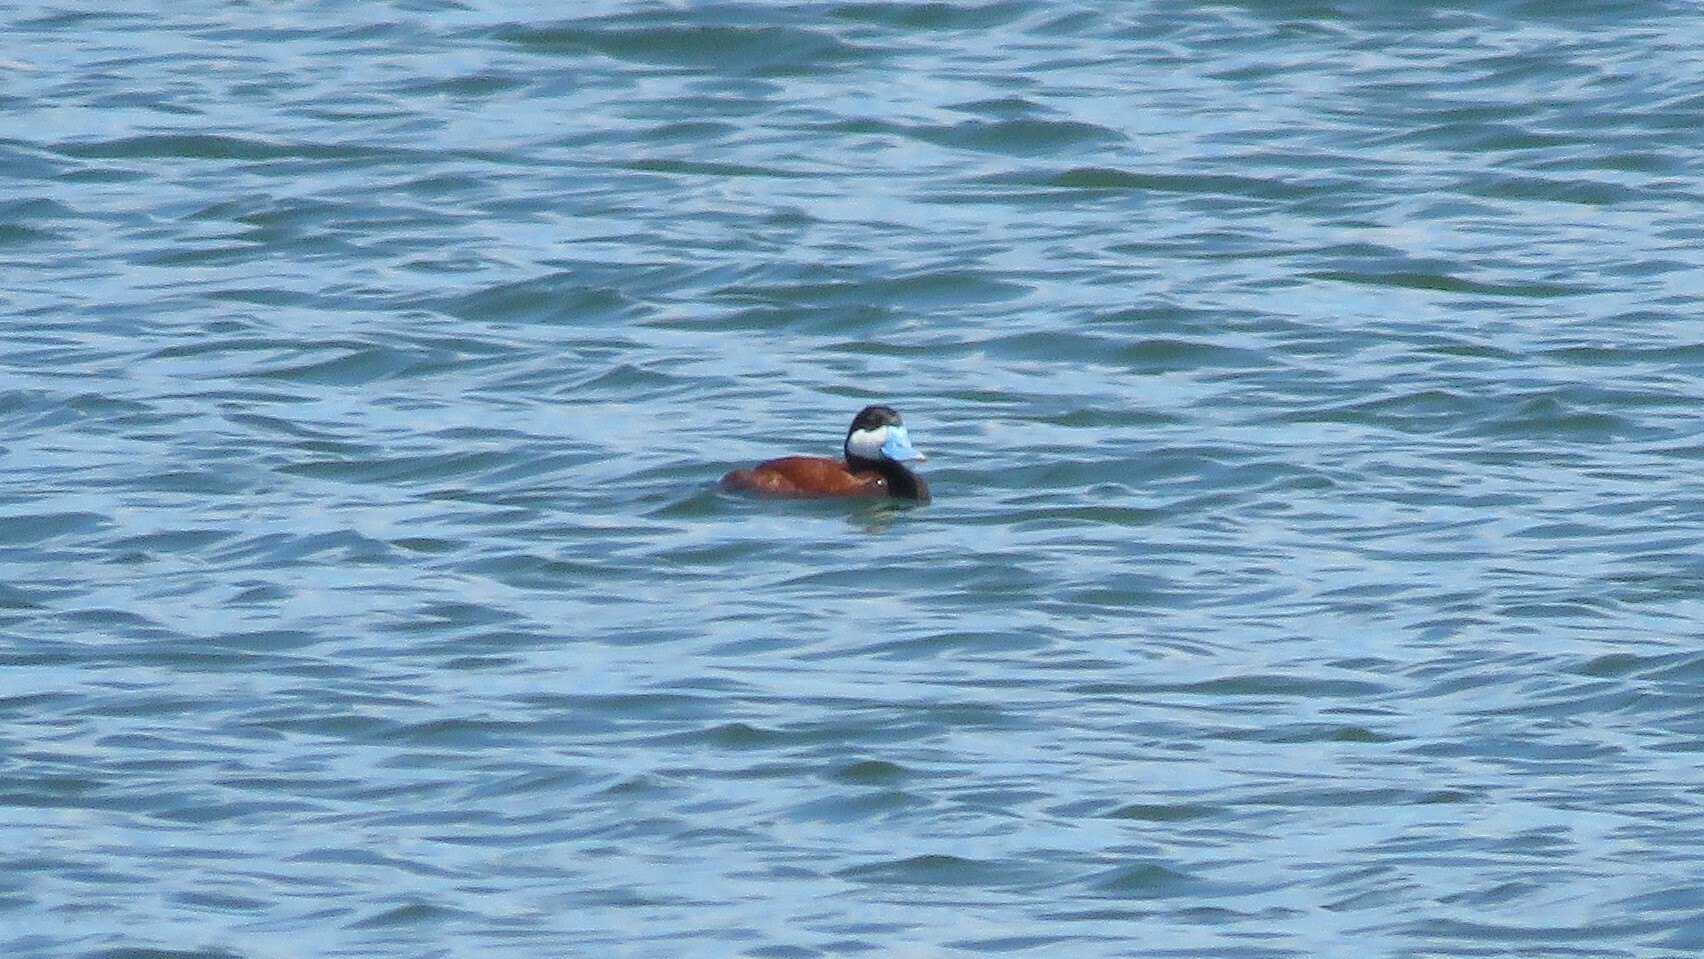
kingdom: Animalia
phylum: Chordata
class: Aves
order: Anseriformes
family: Anatidae
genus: Oxyura
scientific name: Oxyura jamaicensis
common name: Ruddy duck
